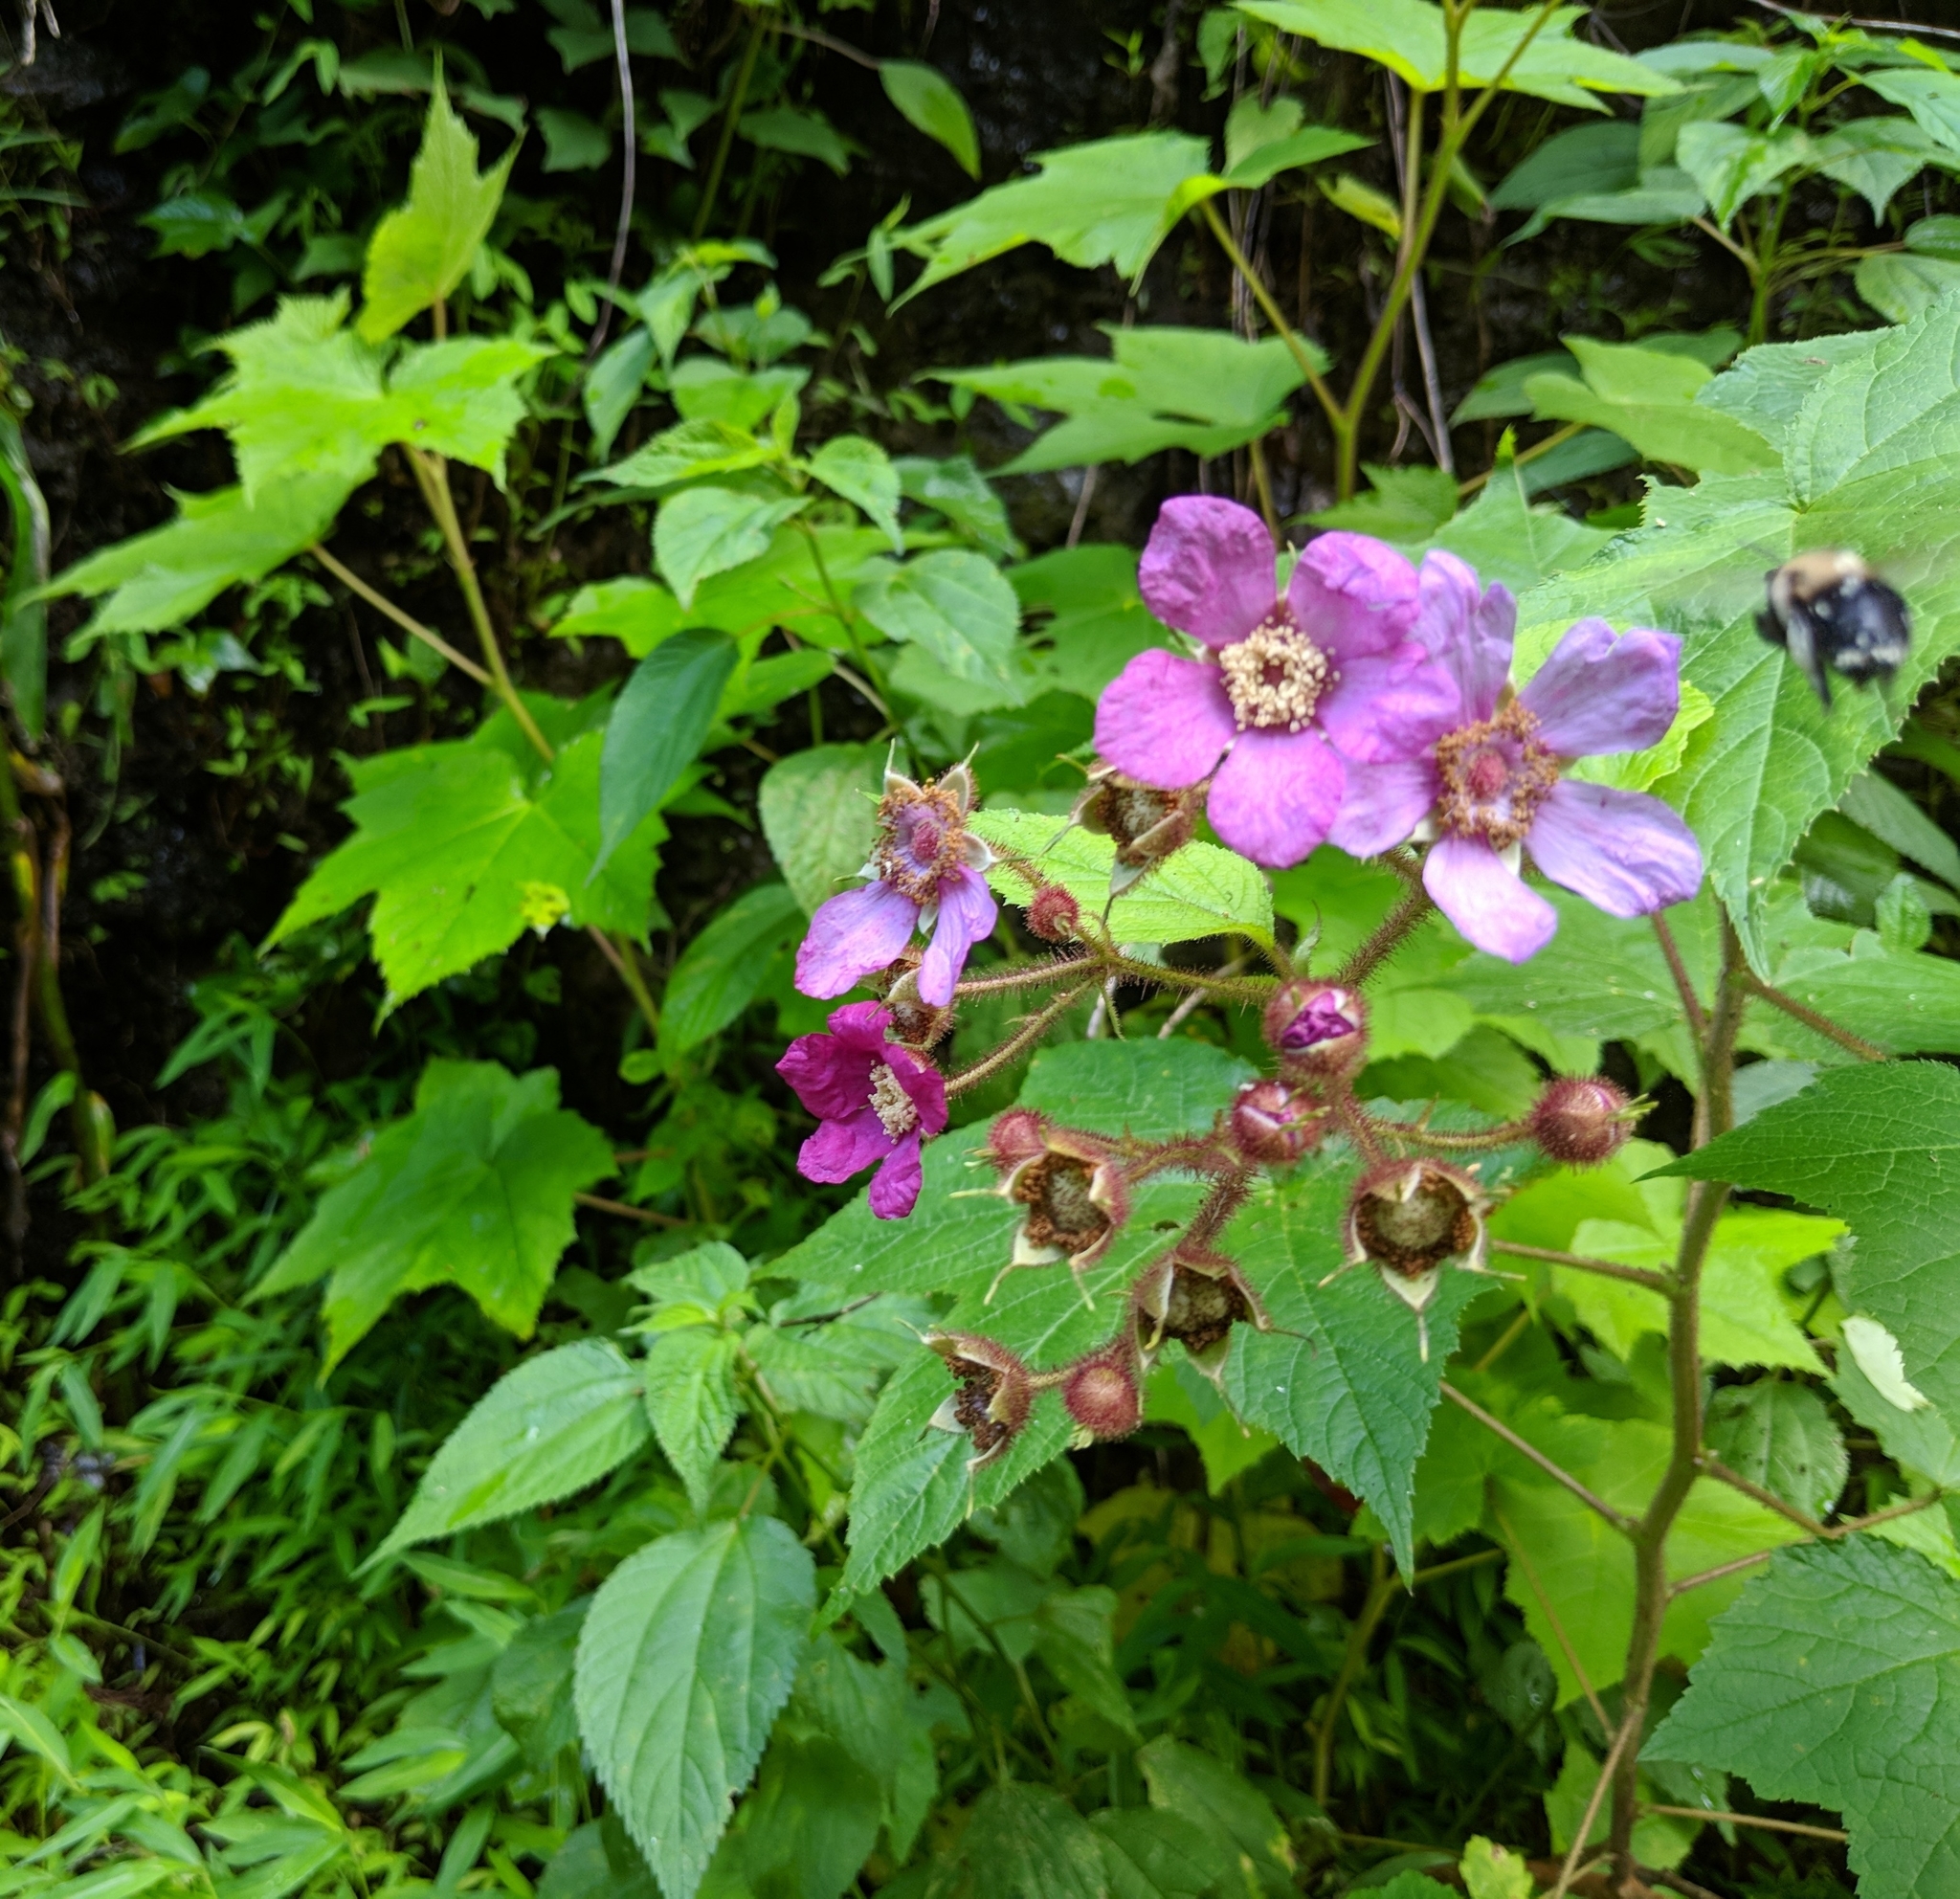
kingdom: Plantae
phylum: Tracheophyta
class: Magnoliopsida
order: Rosales
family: Rosaceae
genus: Rubus
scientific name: Rubus odoratus
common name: Purple-flowered raspberry
